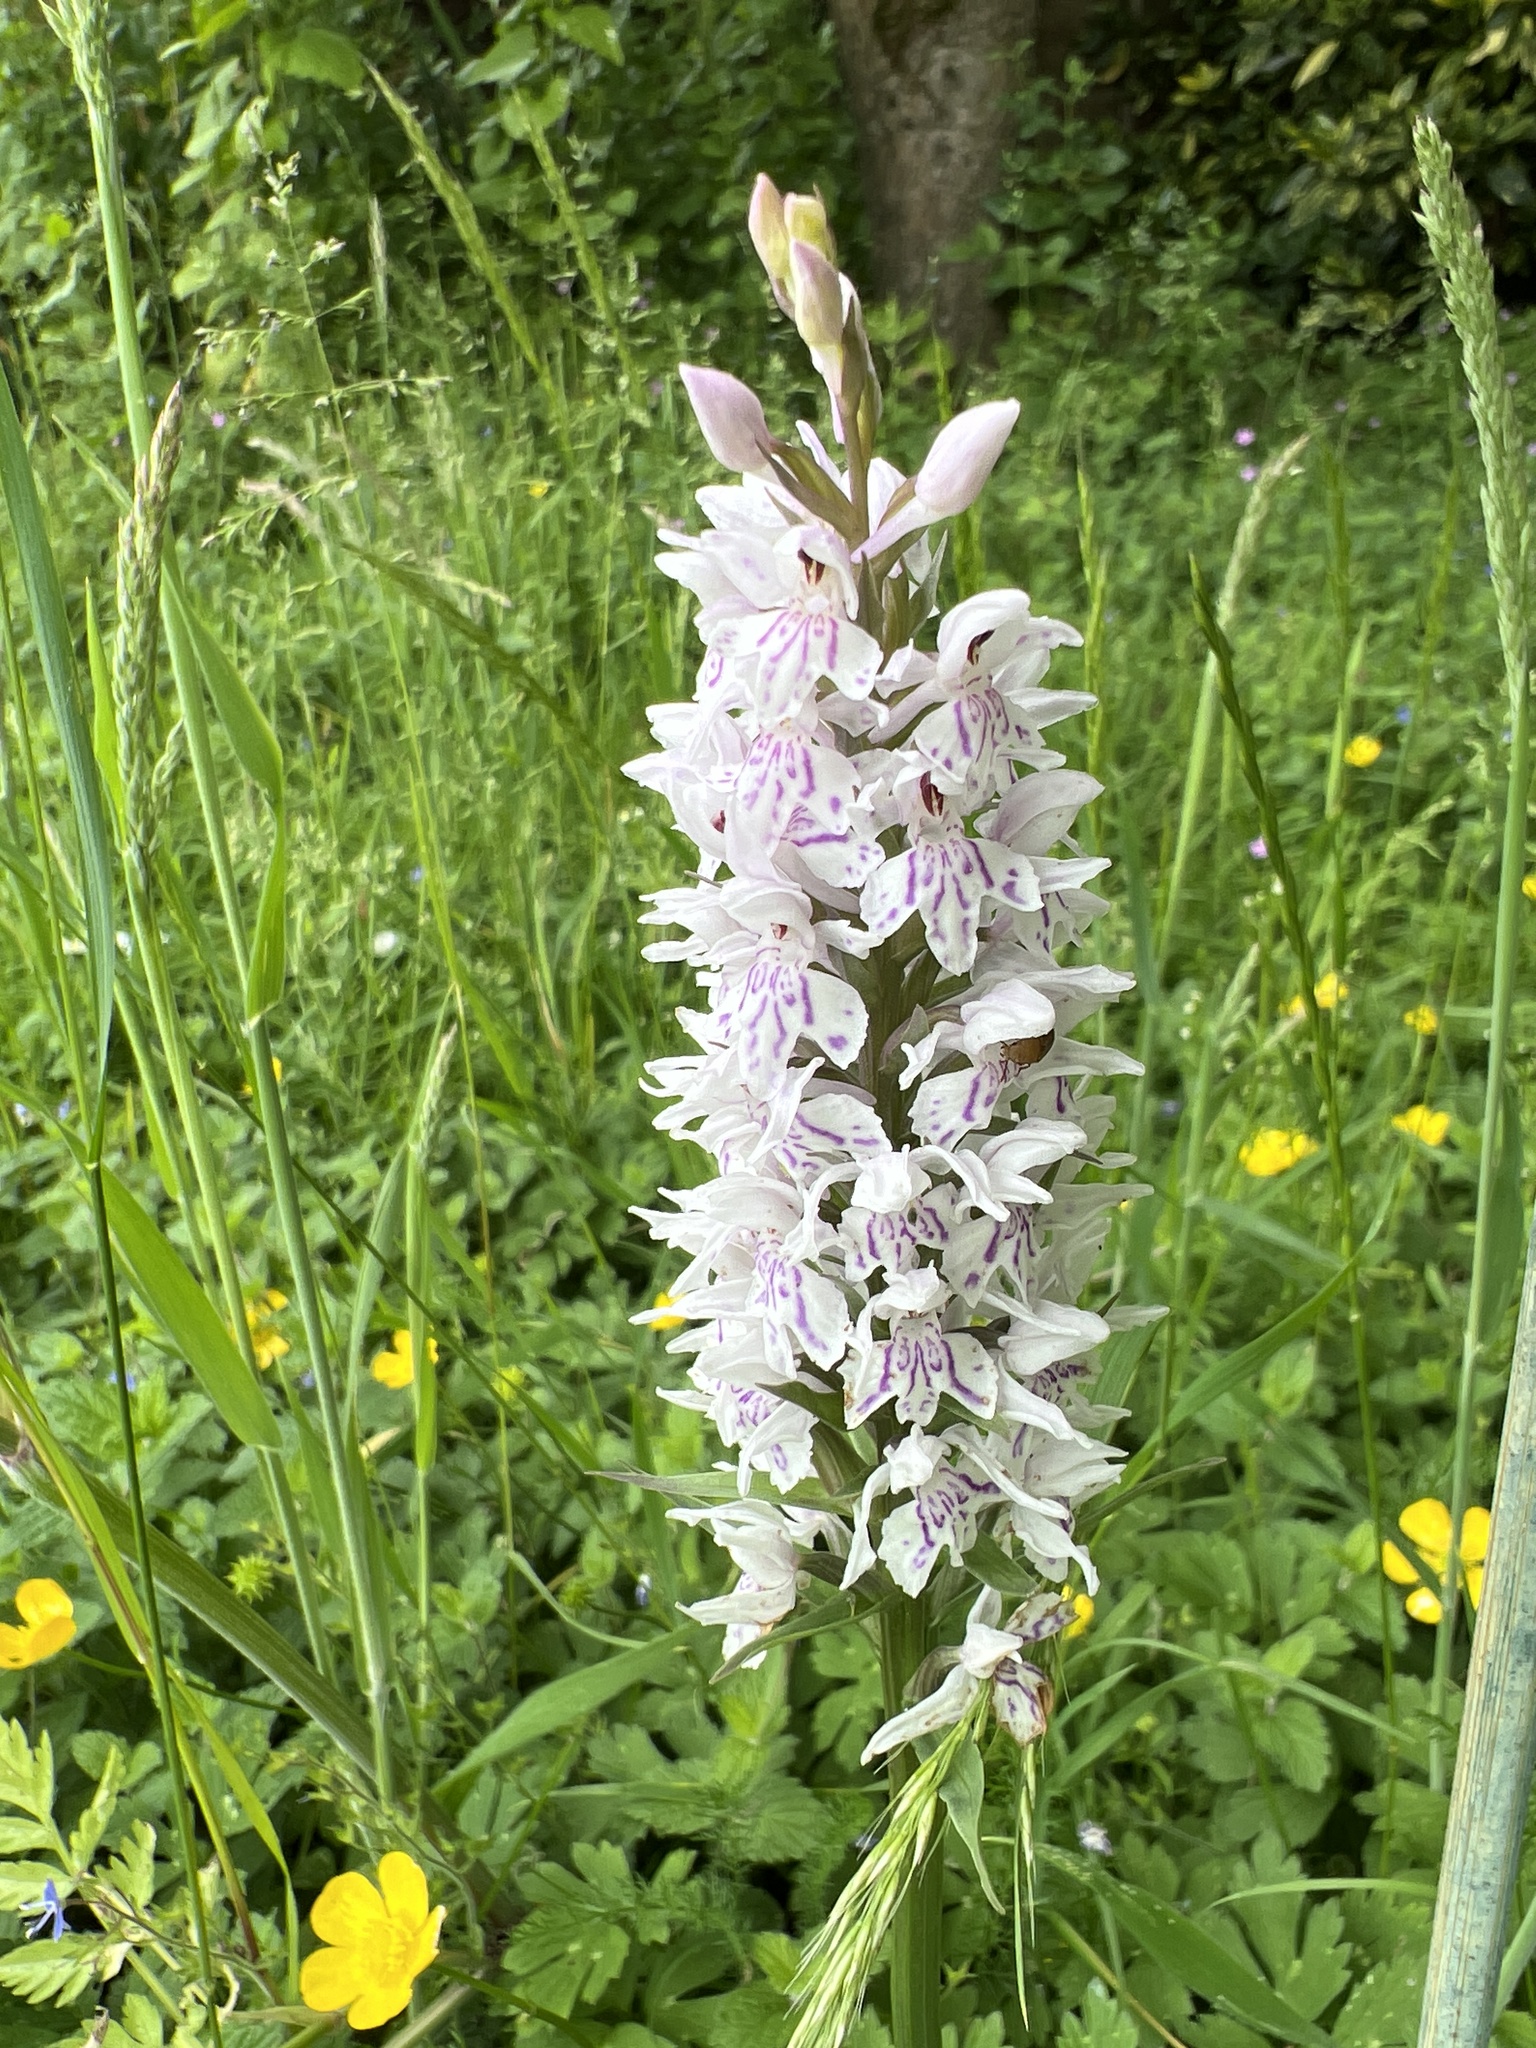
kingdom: Plantae
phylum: Tracheophyta
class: Liliopsida
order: Asparagales
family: Orchidaceae
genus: Dactylorhiza
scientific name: Dactylorhiza maculata
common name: Heath spotted-orchid
